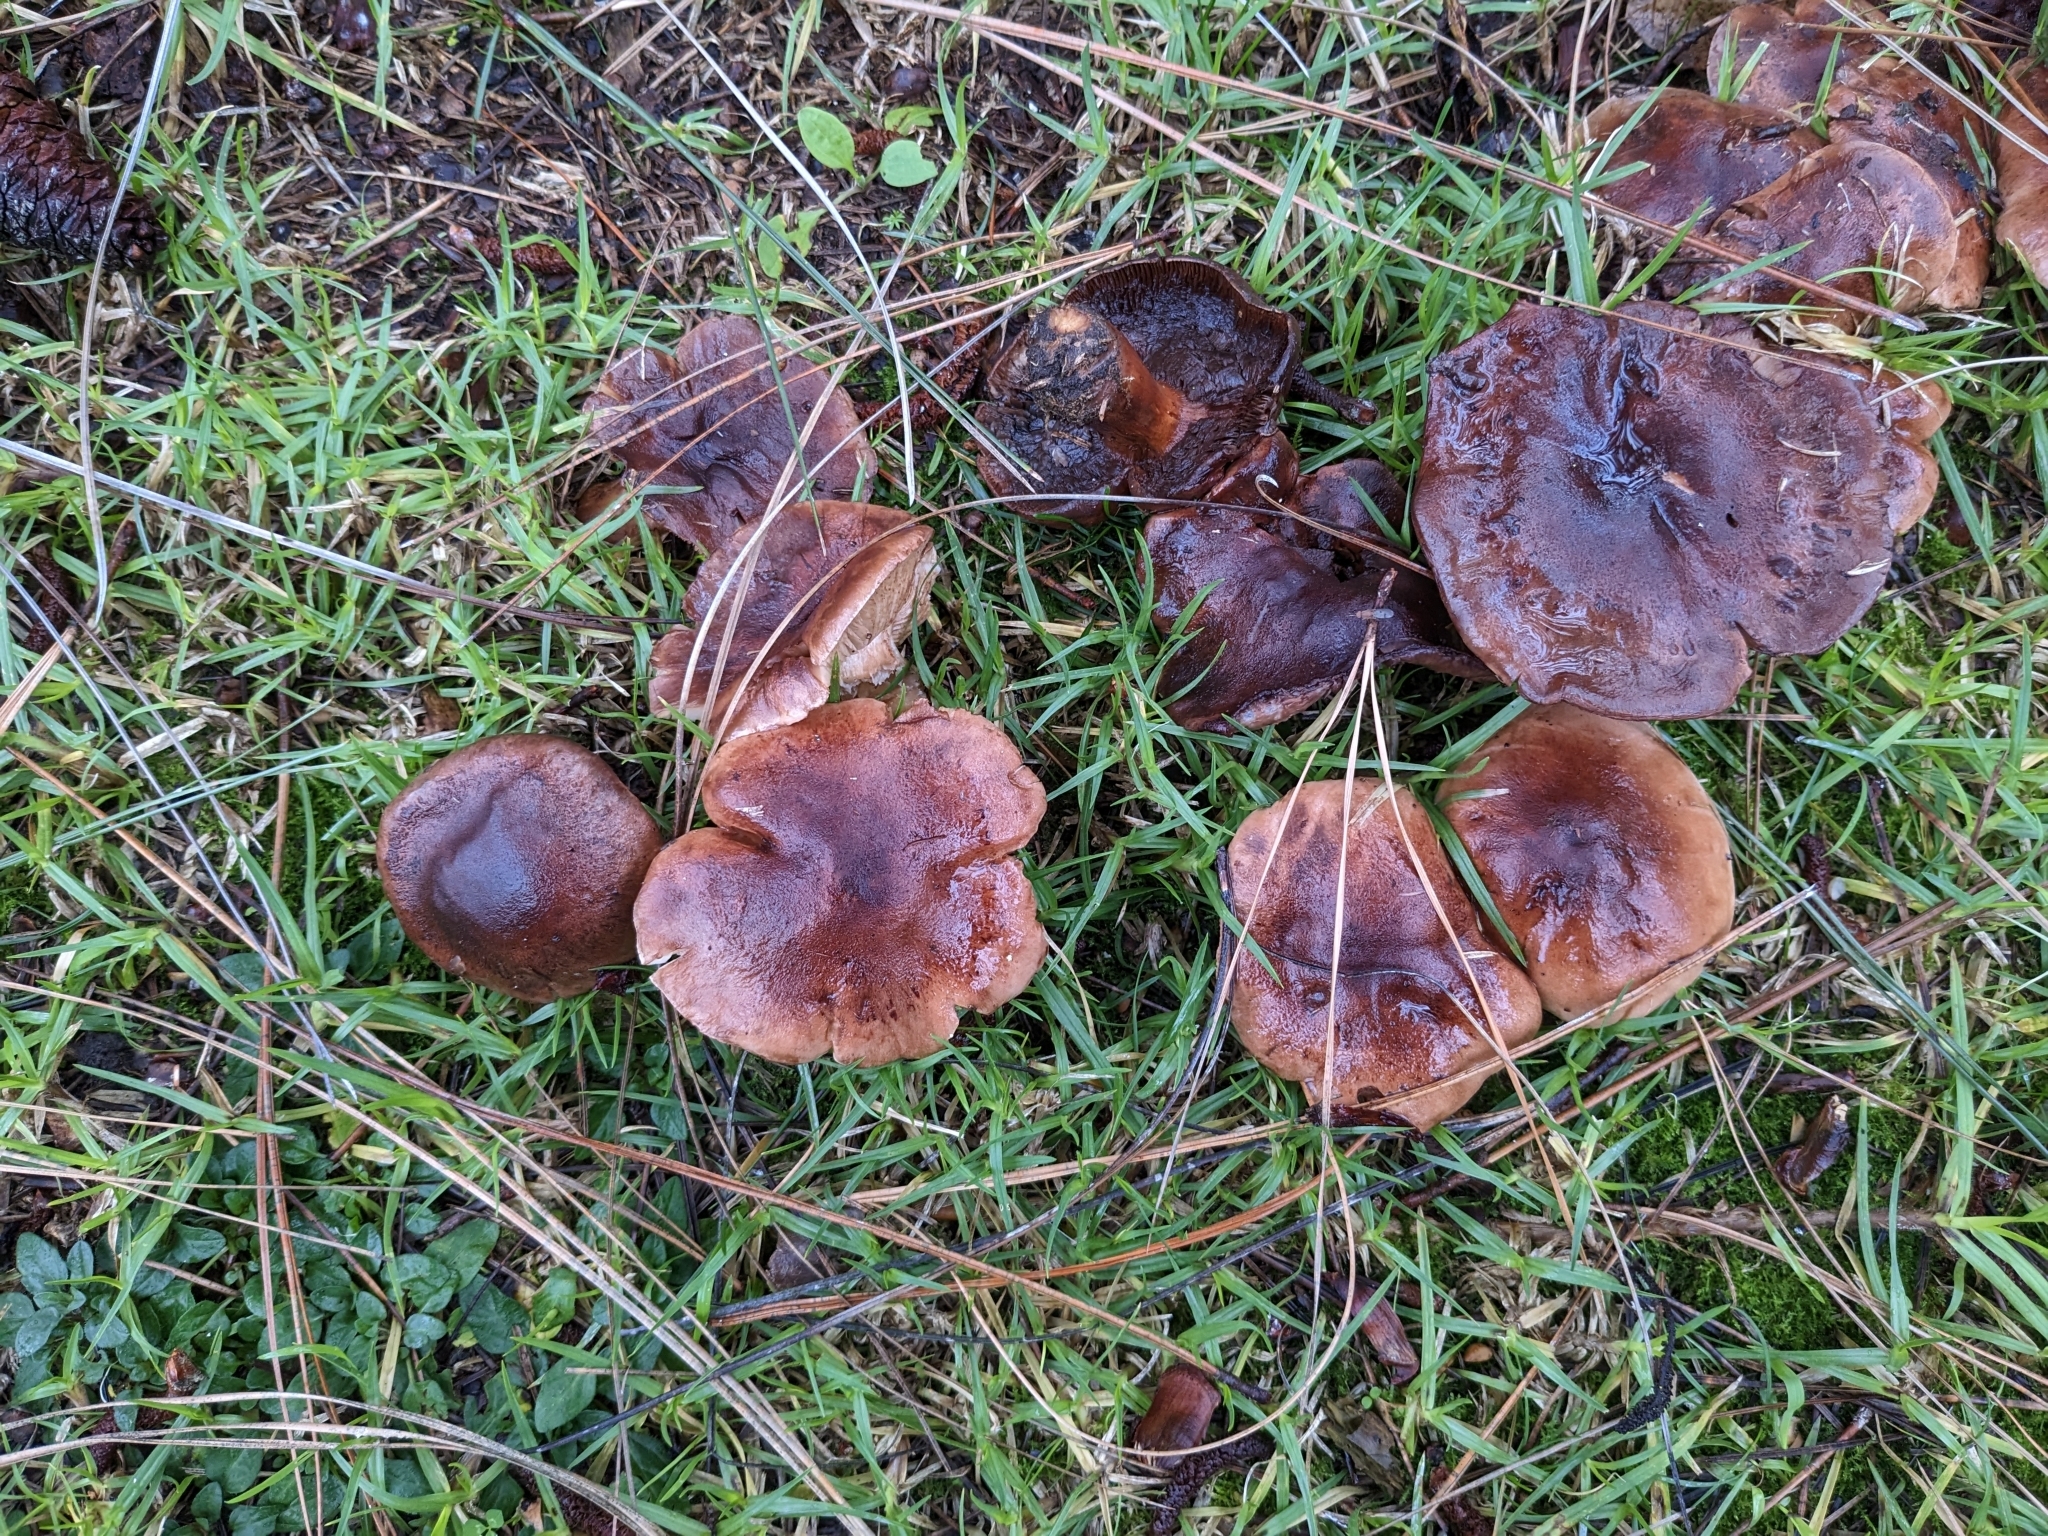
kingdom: Fungi
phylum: Basidiomycota
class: Agaricomycetes
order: Agaricales
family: Tricholomataceae
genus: Tricholoma
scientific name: Tricholoma batschii
